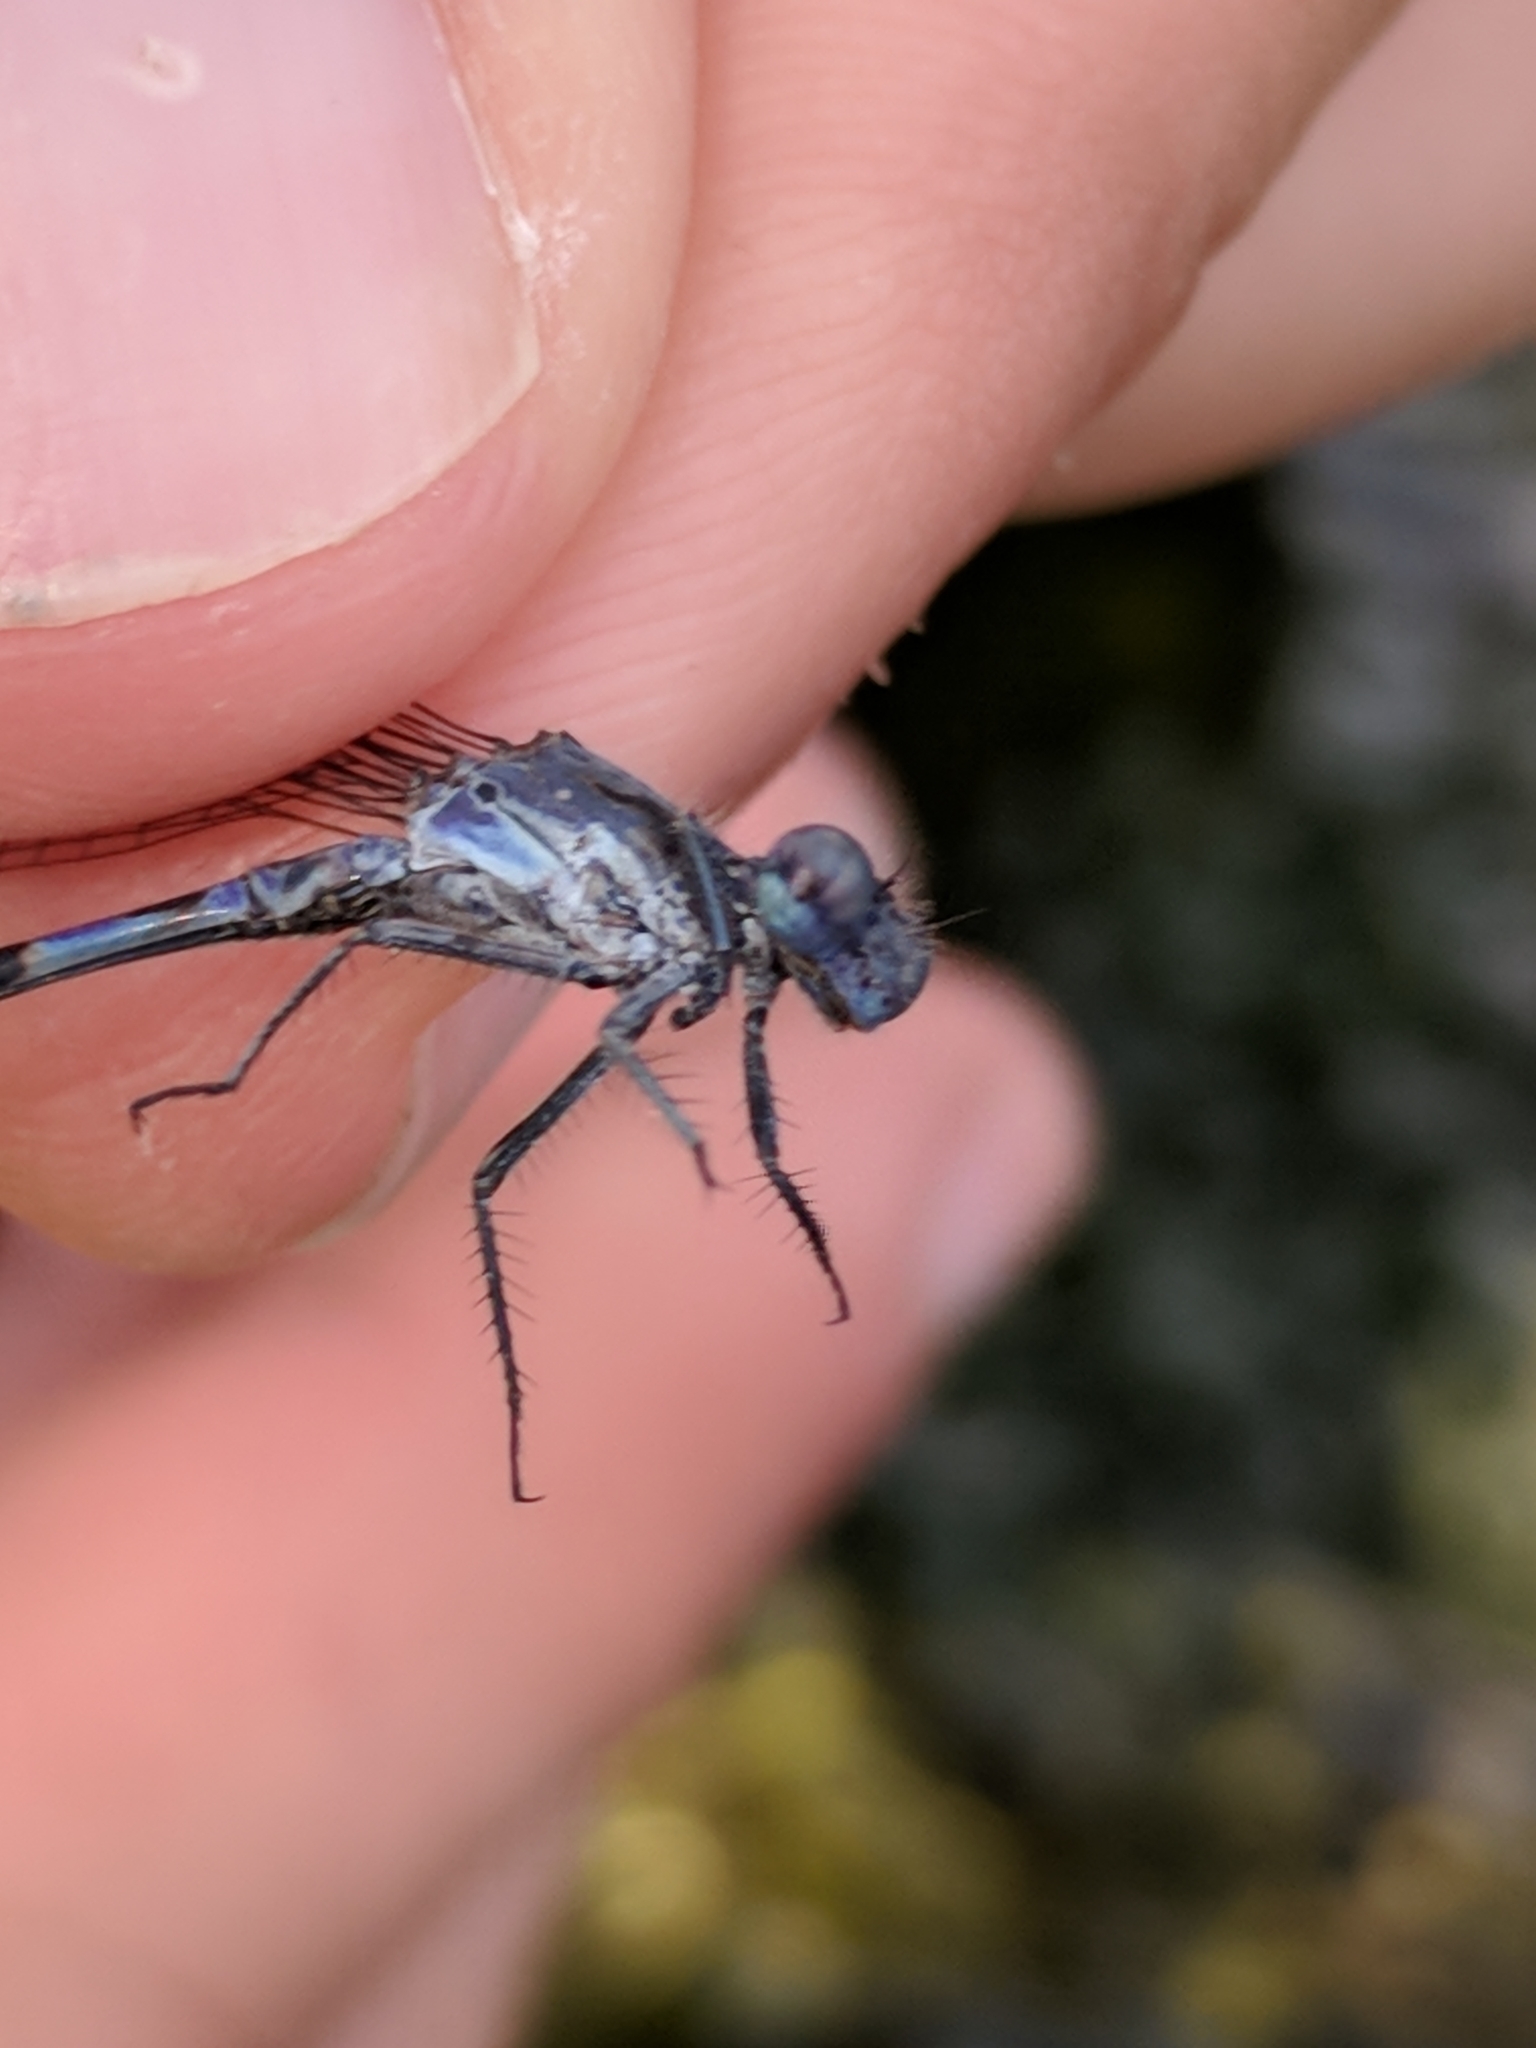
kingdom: Animalia
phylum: Arthropoda
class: Insecta
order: Odonata
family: Coenagrionidae
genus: Argia
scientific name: Argia immunda
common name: Kiowa dancer
